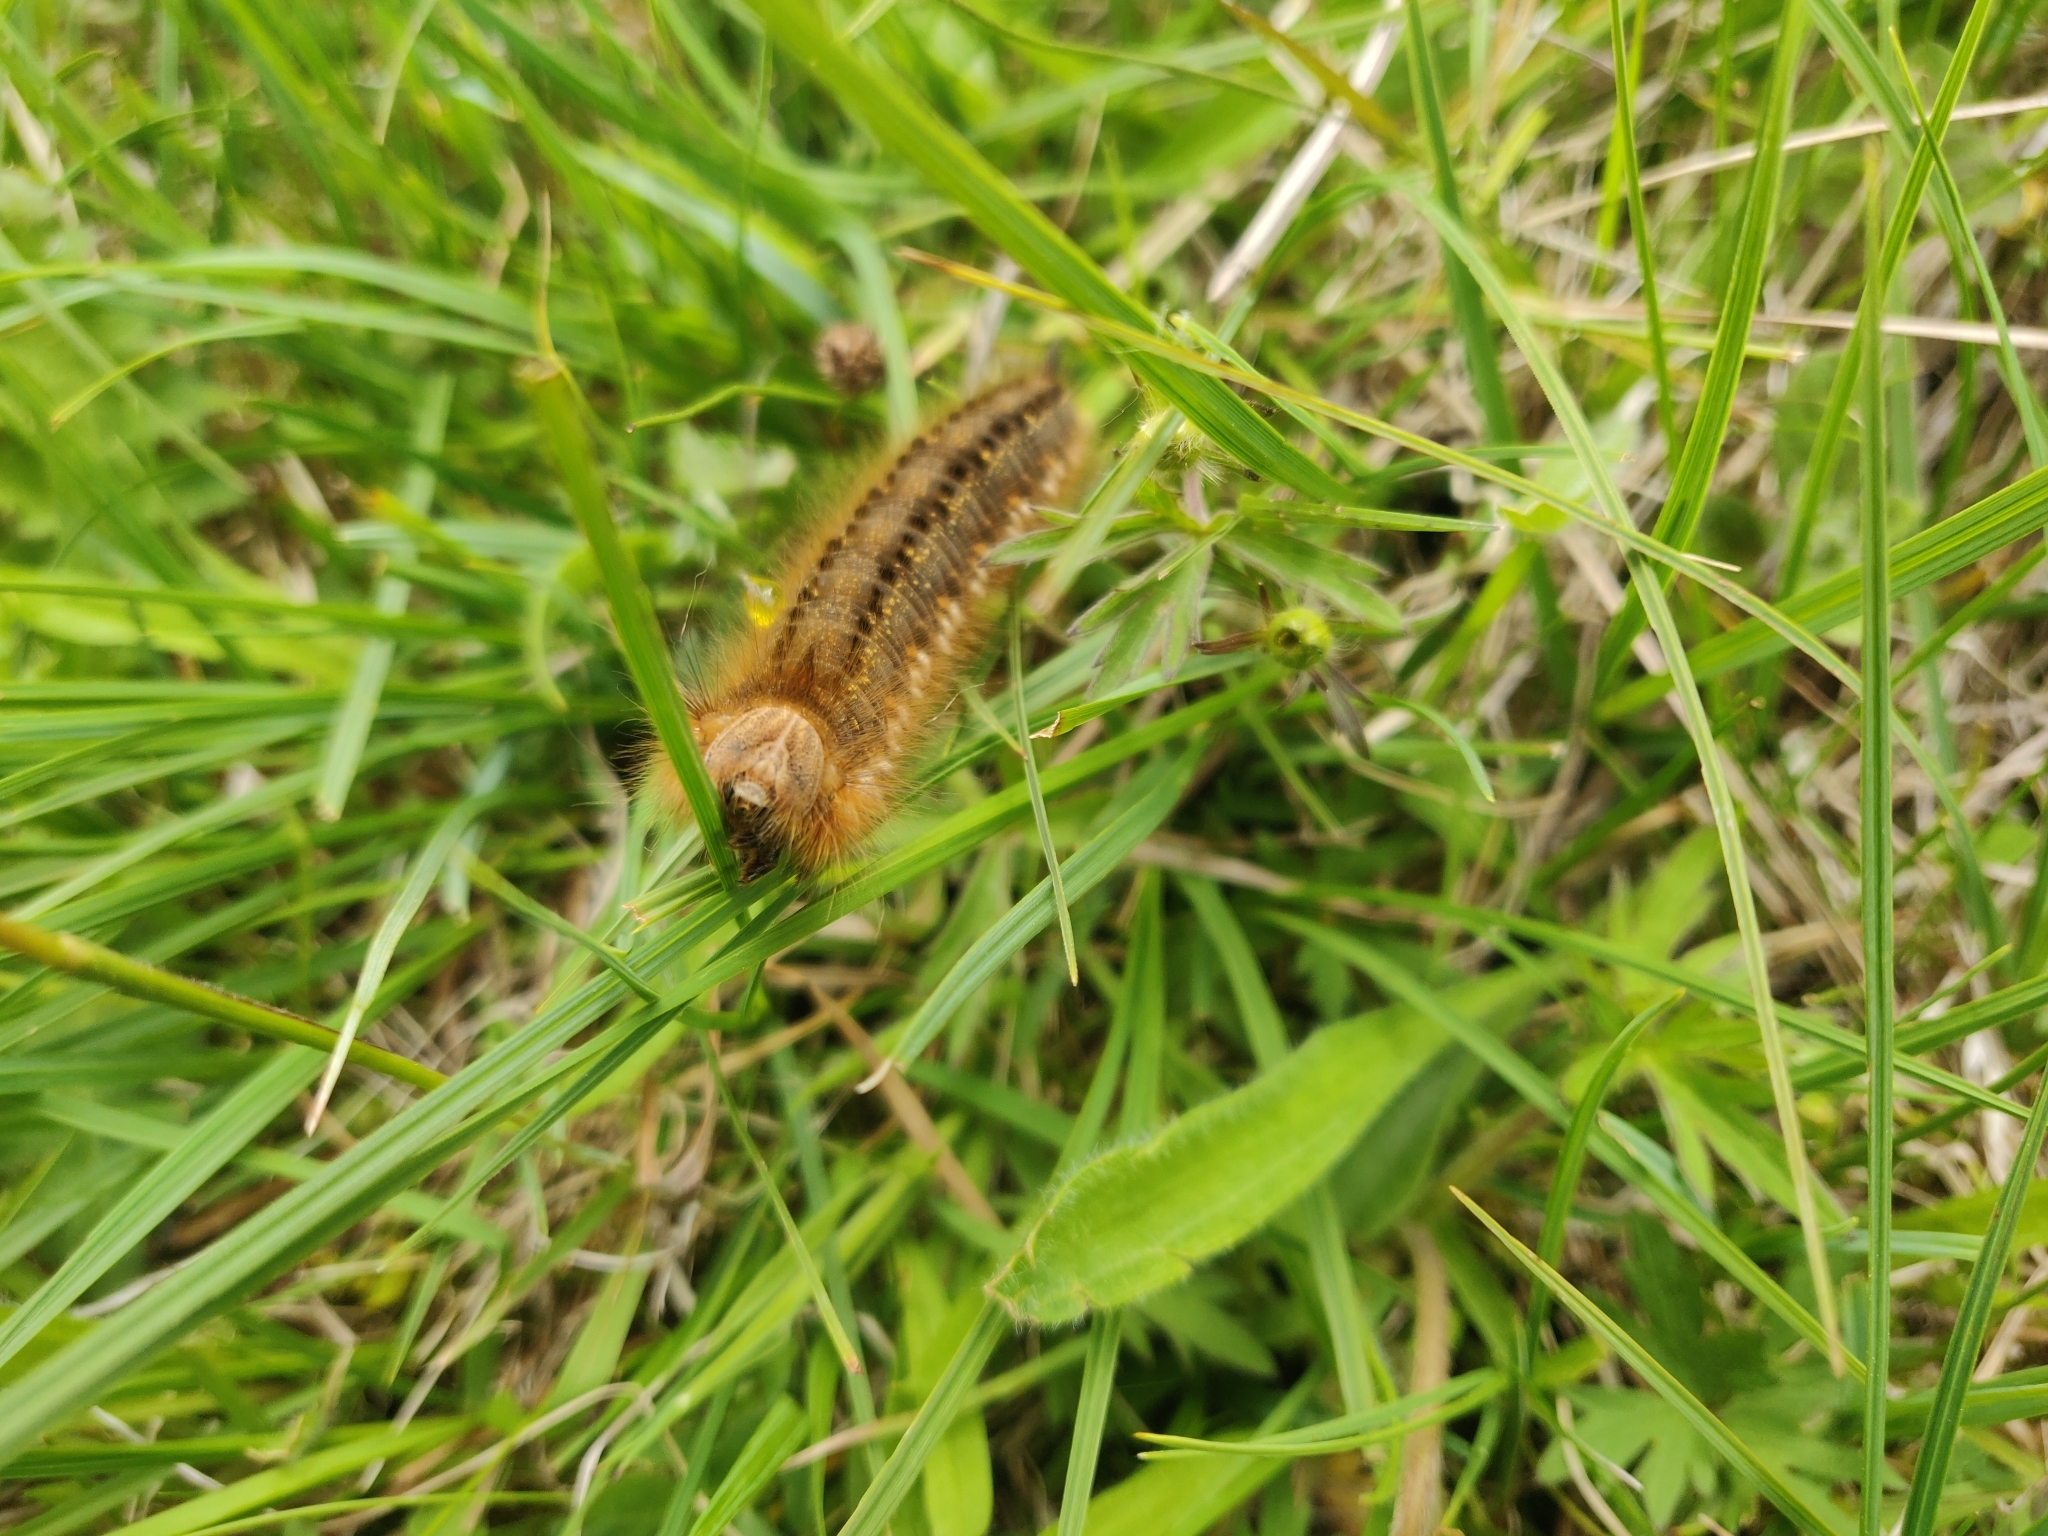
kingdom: Animalia
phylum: Arthropoda
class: Insecta
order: Lepidoptera
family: Lasiocampidae
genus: Euthrix
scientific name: Euthrix potatoria
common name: Drinker
